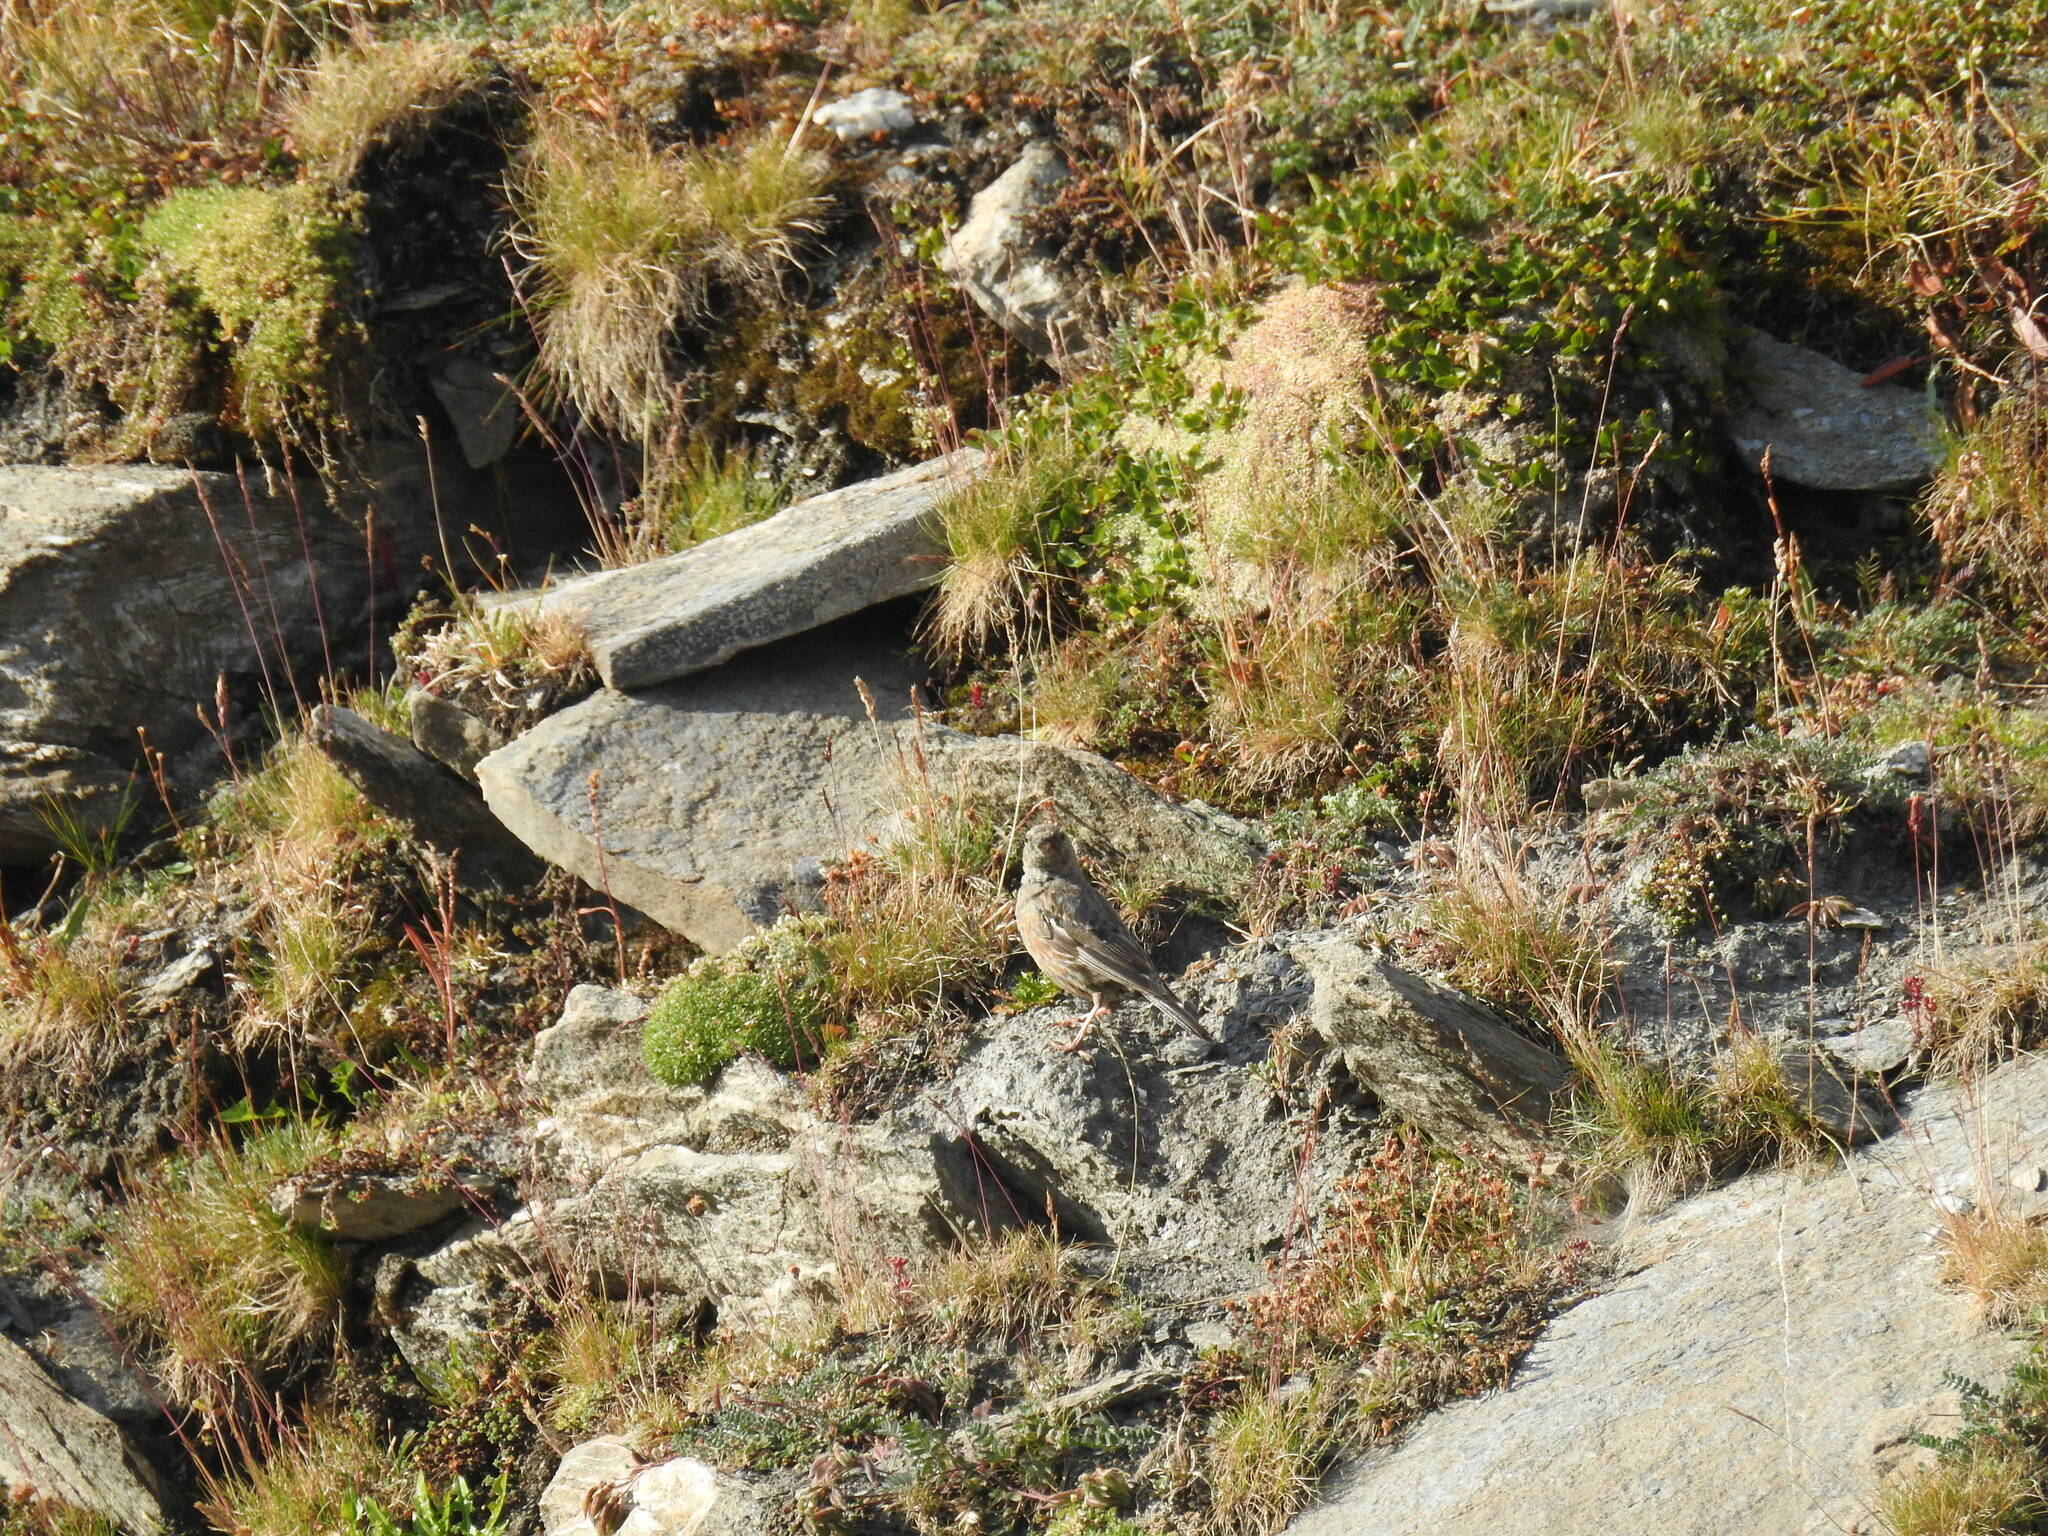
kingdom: Animalia
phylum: Chordata
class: Aves
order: Passeriformes
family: Prunellidae
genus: Prunella
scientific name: Prunella collaris
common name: Alpine accentor
